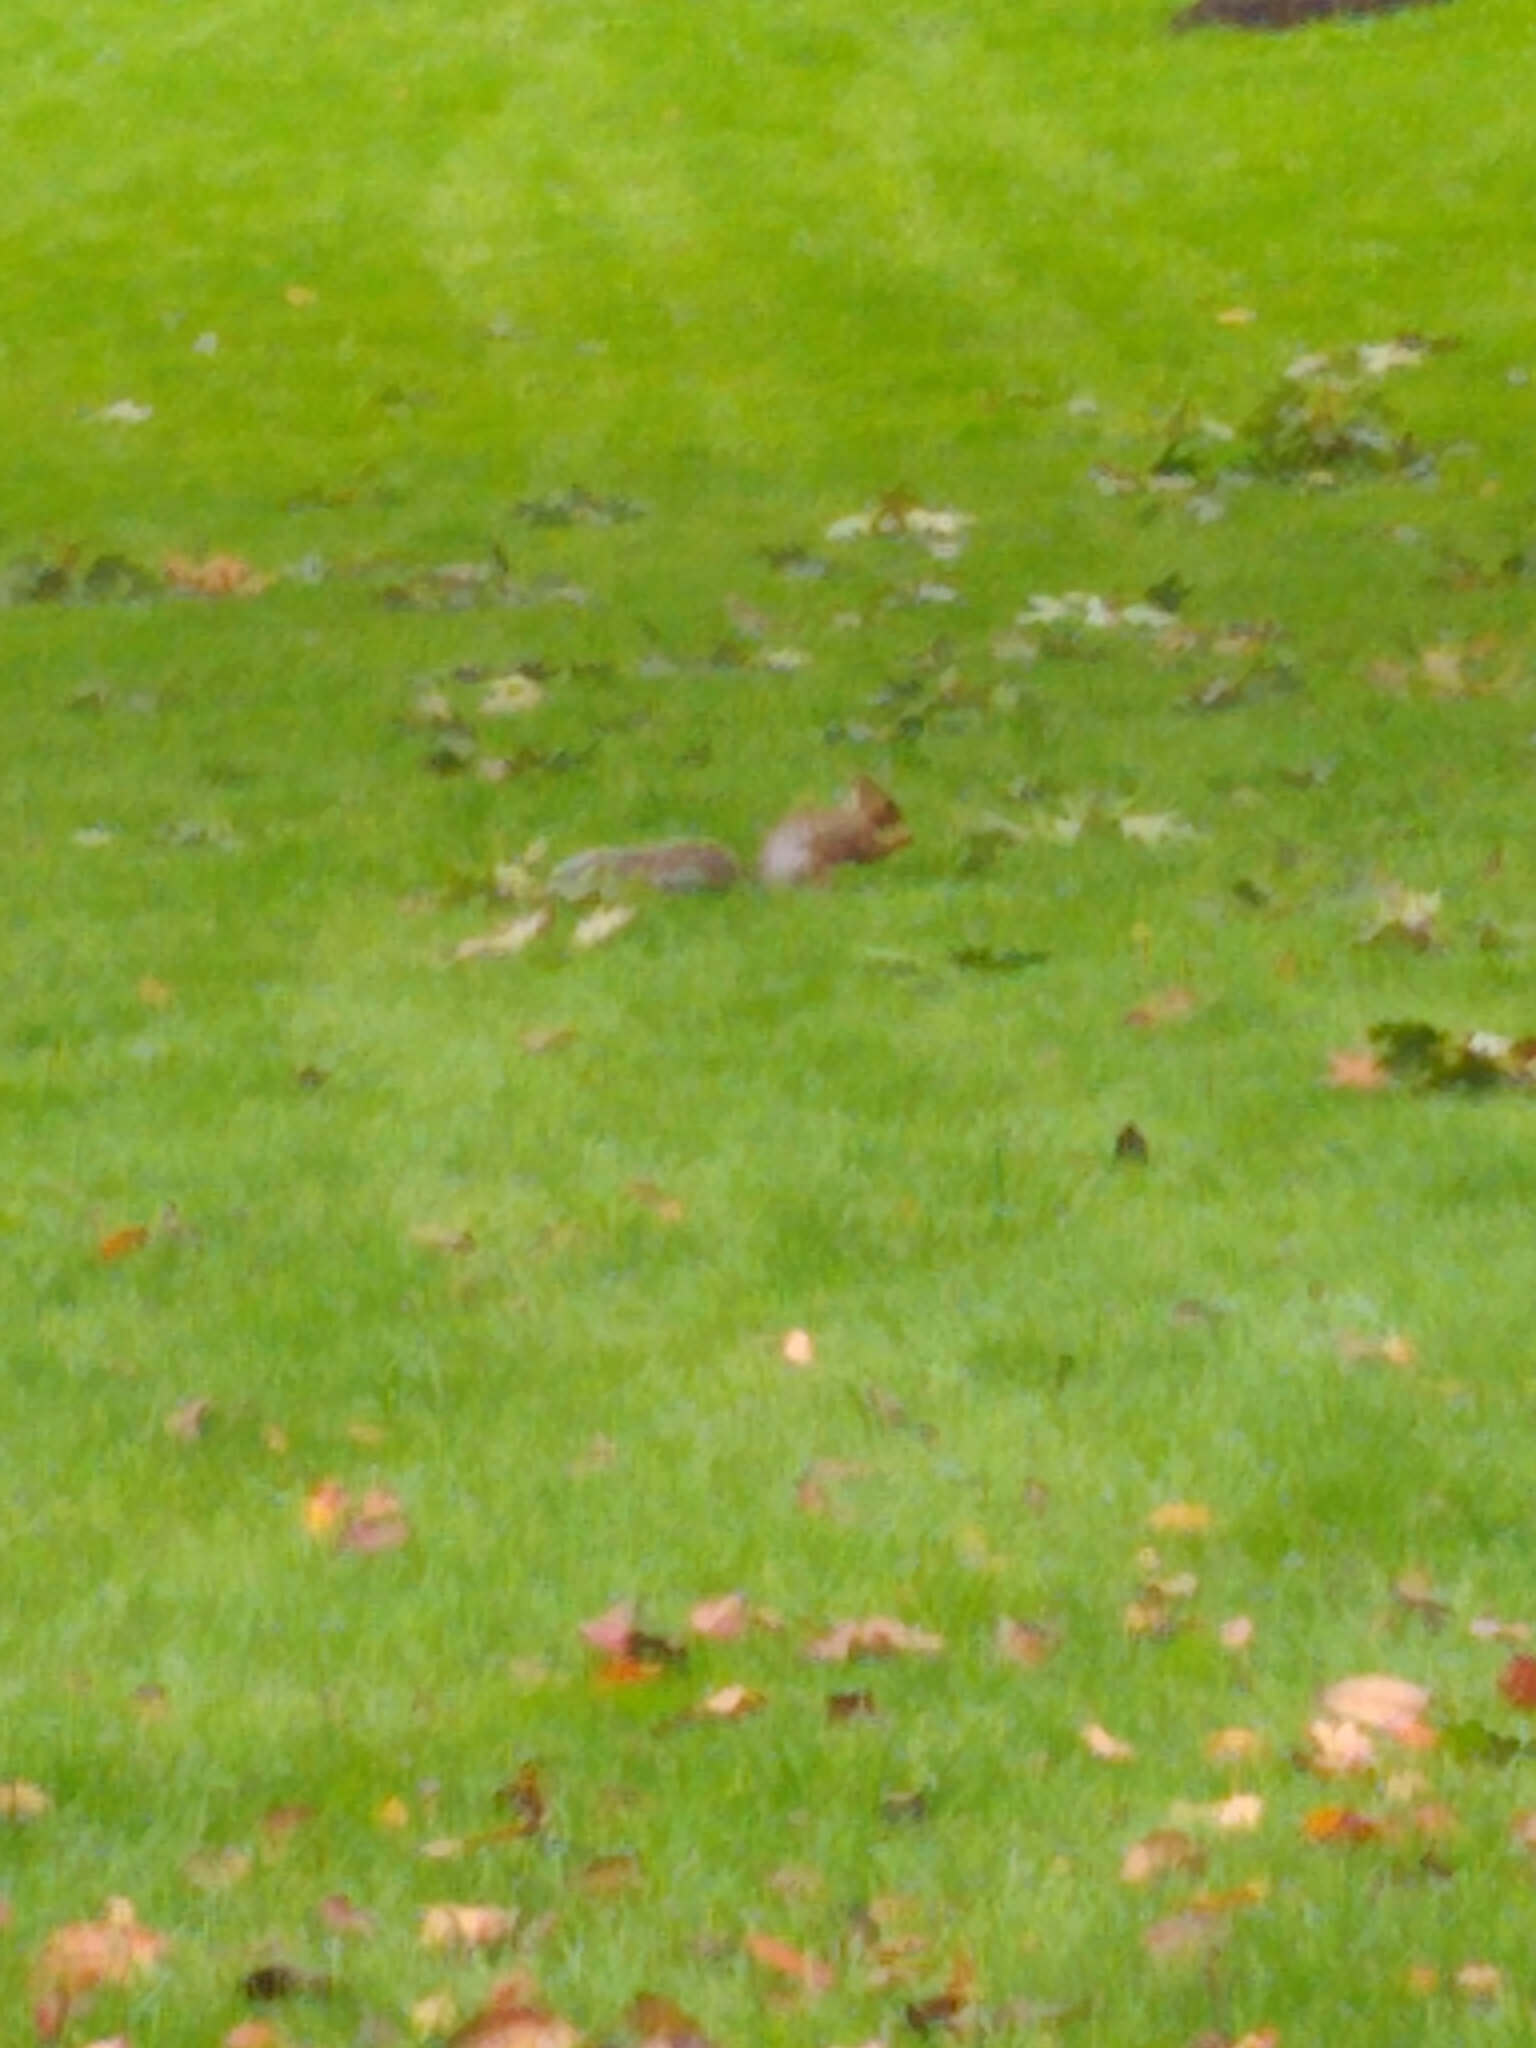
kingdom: Animalia
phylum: Chordata
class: Mammalia
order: Rodentia
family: Sciuridae
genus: Sciurus
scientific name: Sciurus carolinensis
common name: Eastern gray squirrel
